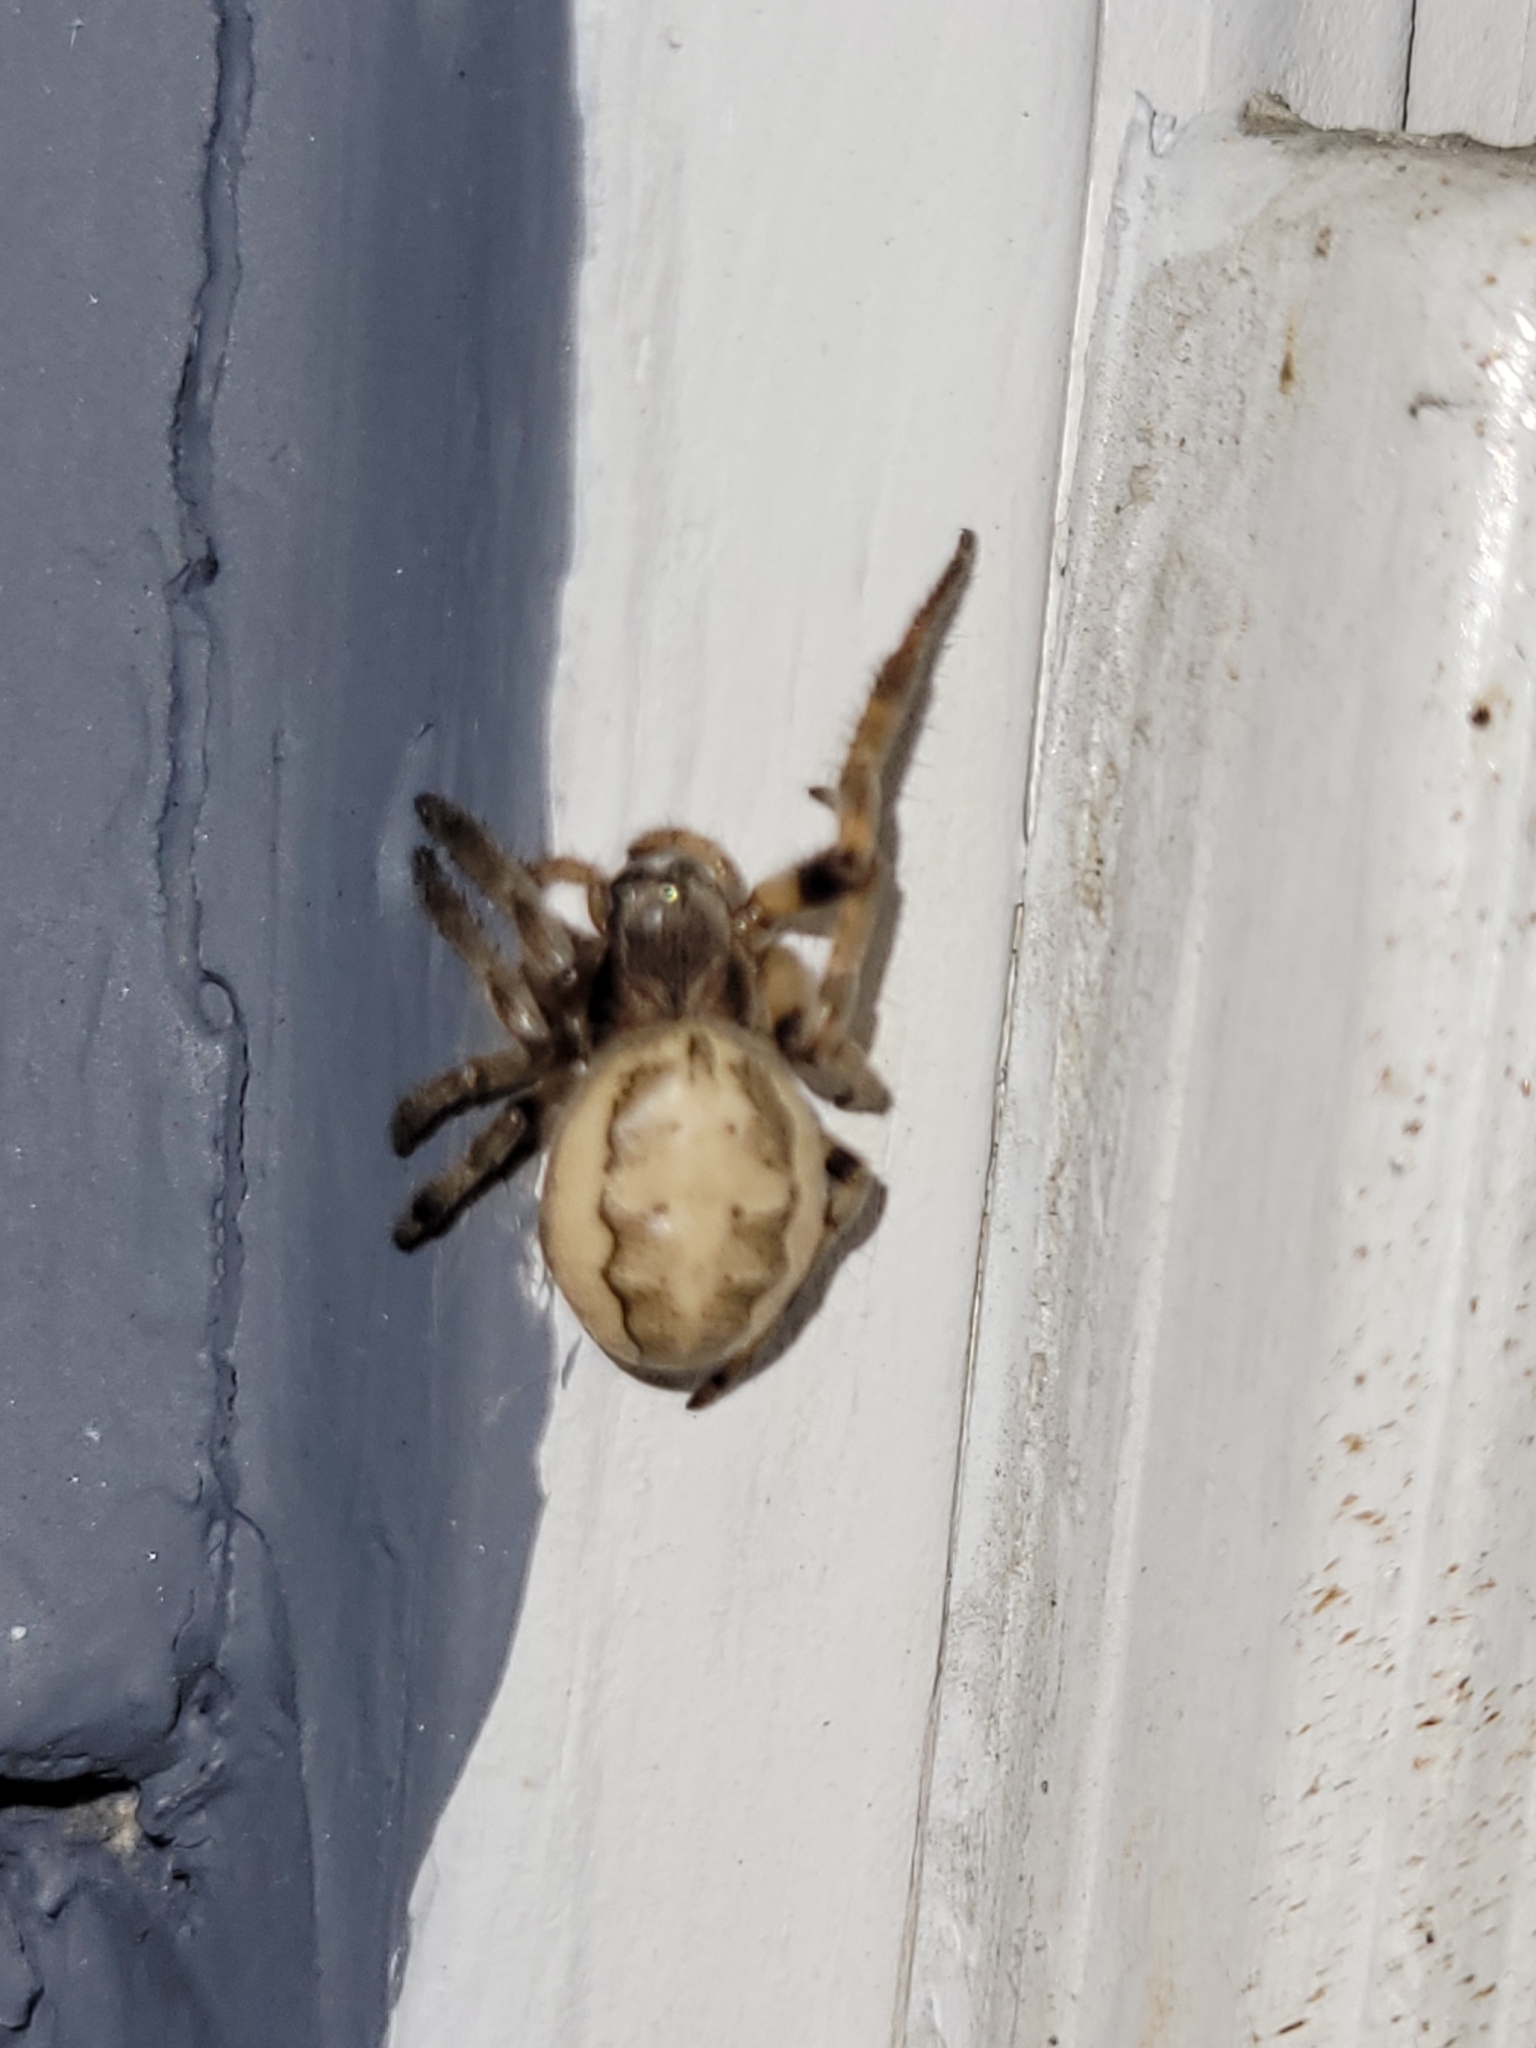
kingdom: Animalia
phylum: Arthropoda
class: Arachnida
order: Araneae
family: Araneidae
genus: Larinioides
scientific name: Larinioides cornutus
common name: Furrow orbweaver
